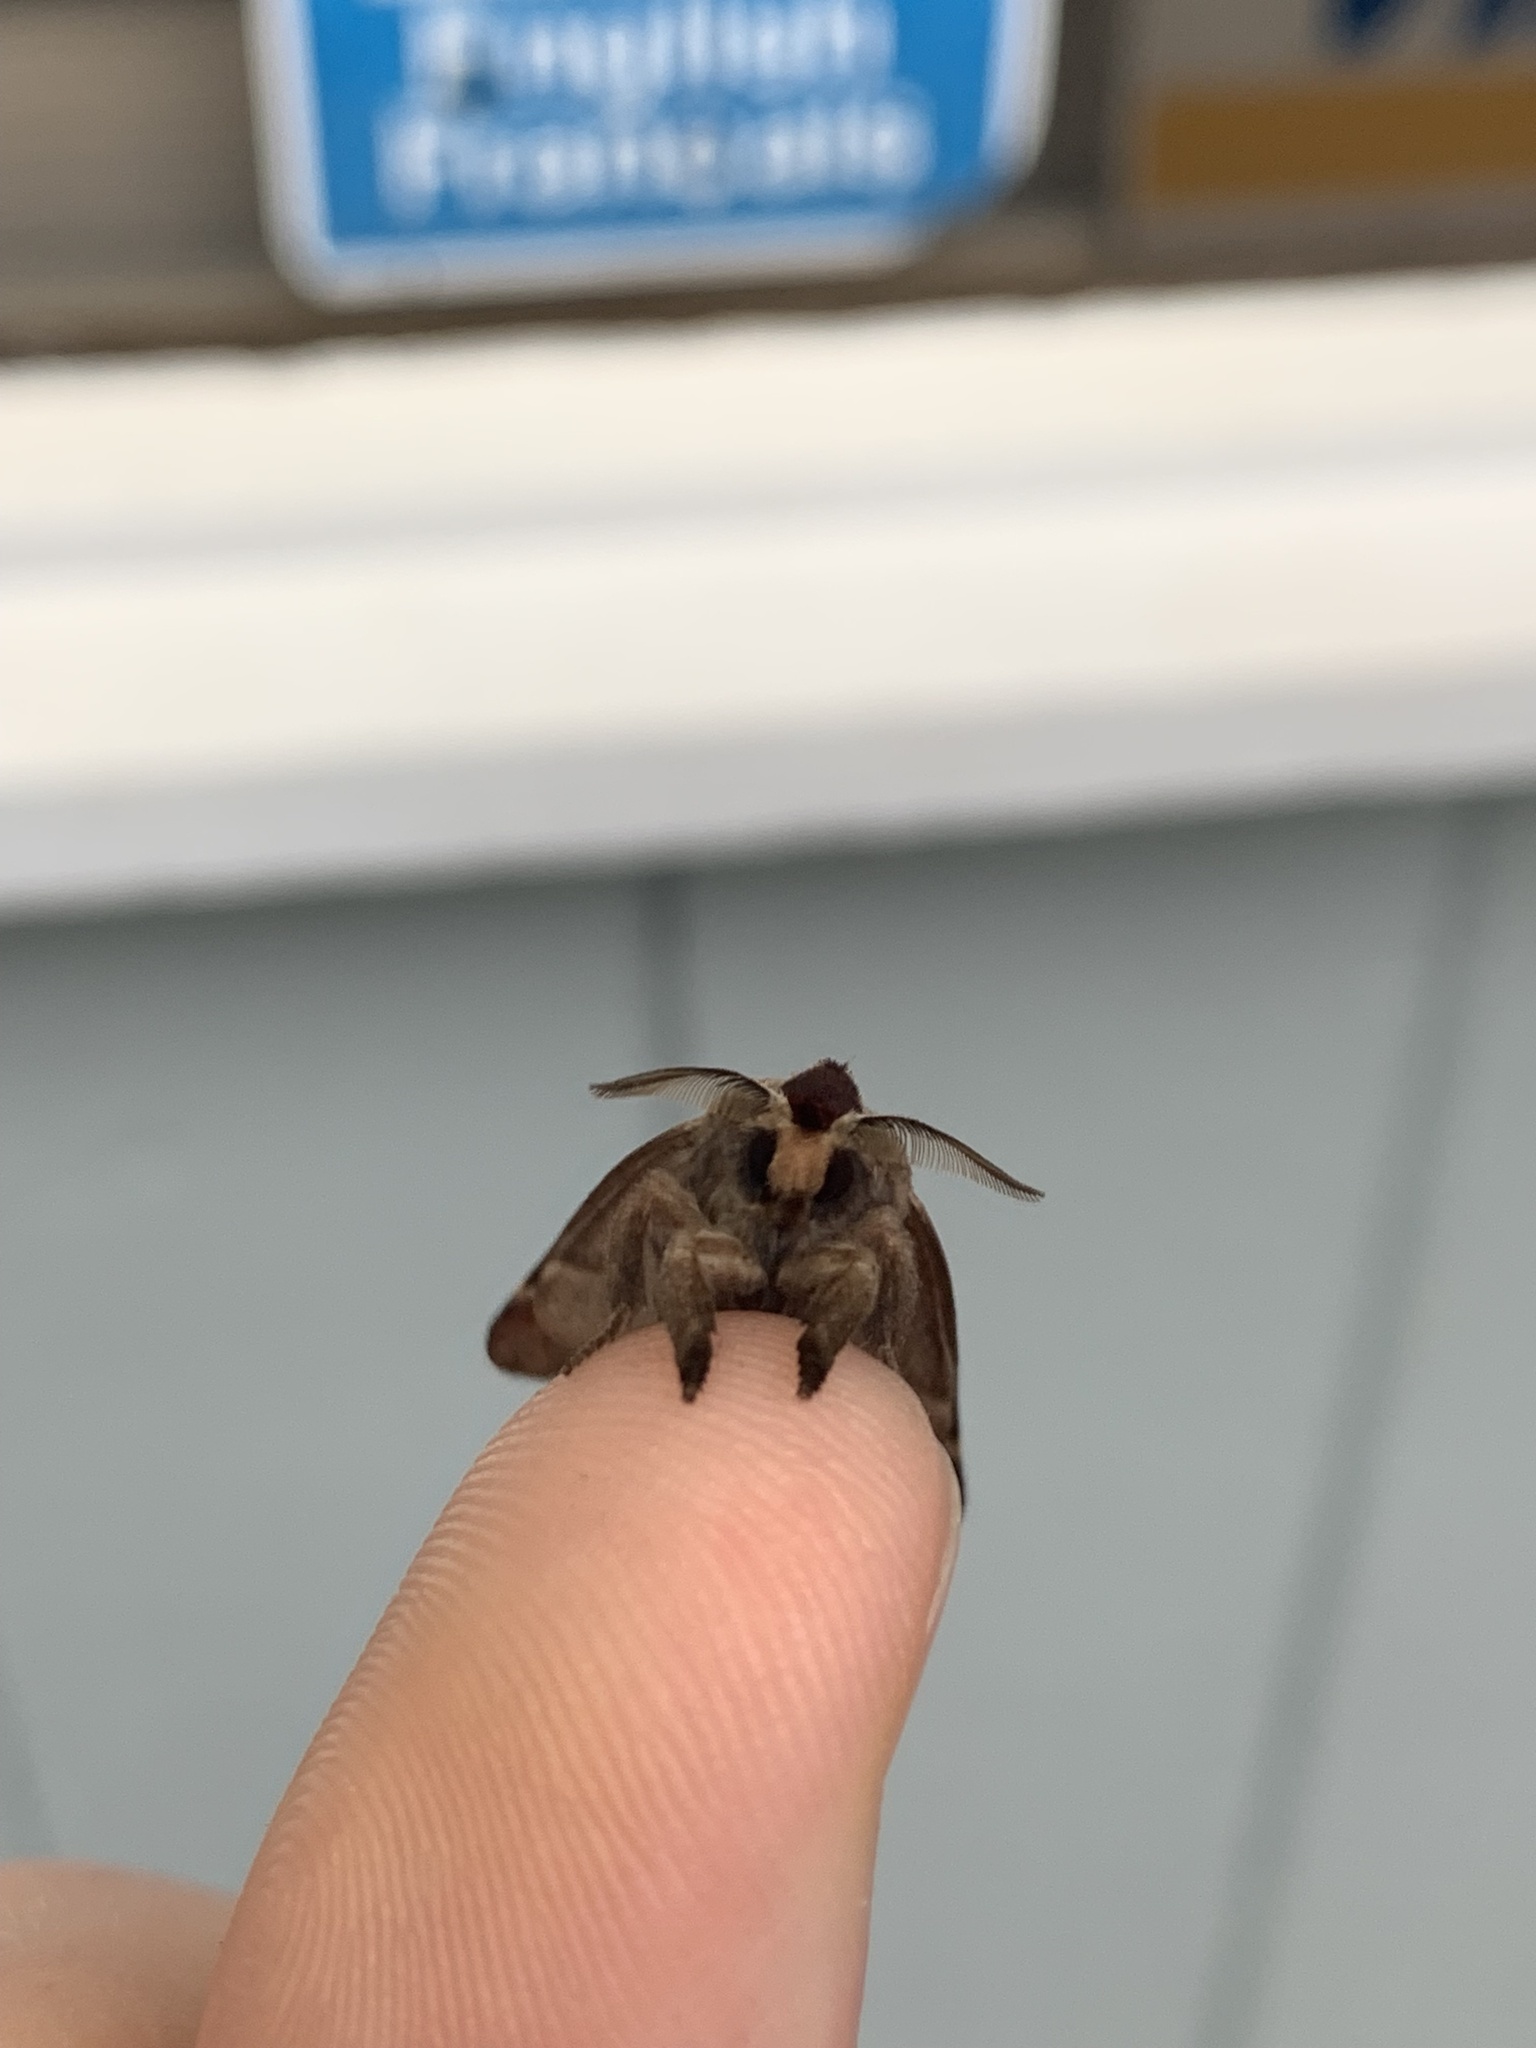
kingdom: Animalia
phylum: Arthropoda
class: Insecta
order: Lepidoptera
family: Notodontidae
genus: Clostera
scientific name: Clostera albosigma
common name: Sigmoid prominent
